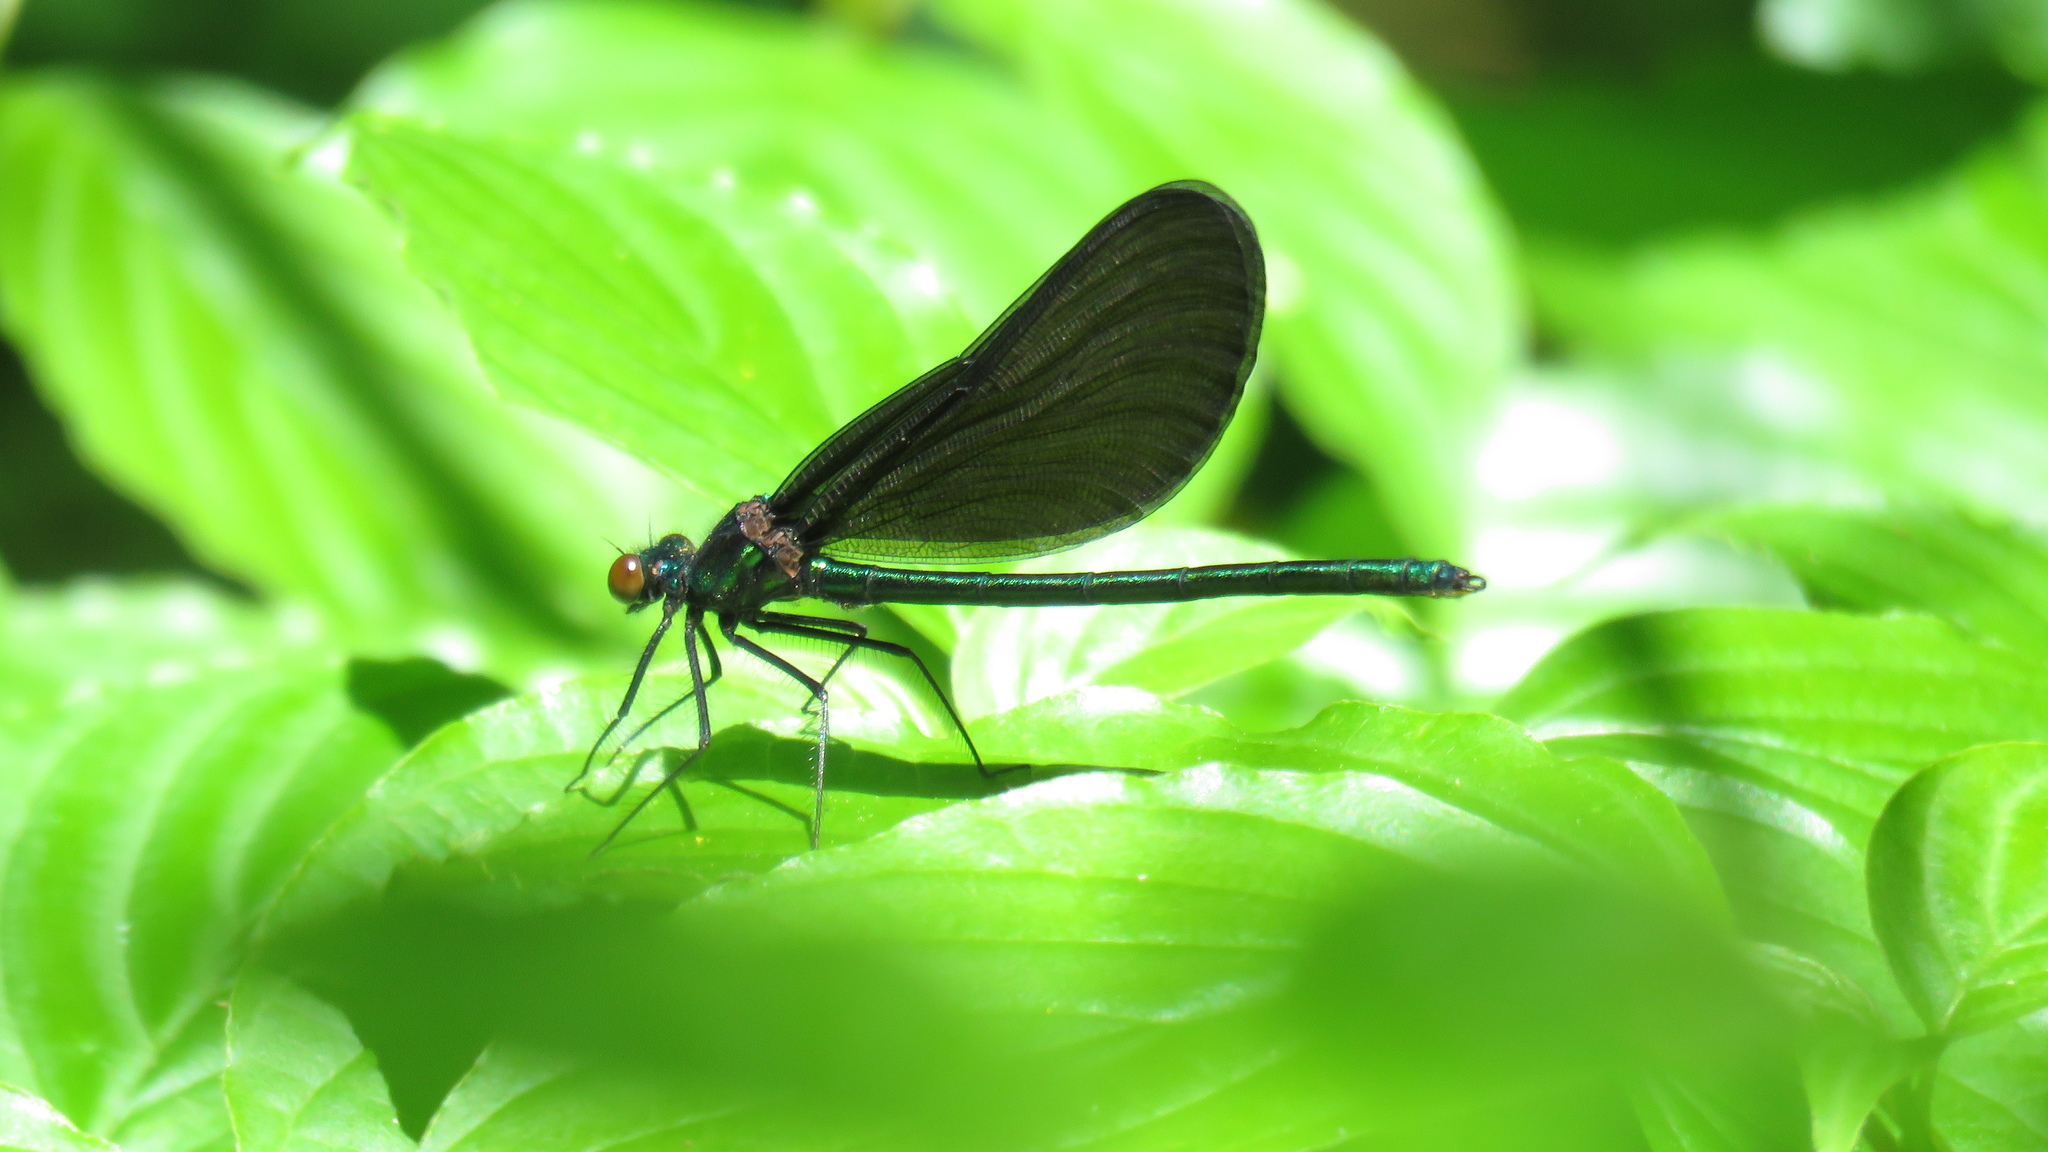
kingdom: Animalia
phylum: Arthropoda
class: Insecta
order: Odonata
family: Calopterygidae
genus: Calopteryx
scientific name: Calopteryx maculata
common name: Ebony jewelwing
